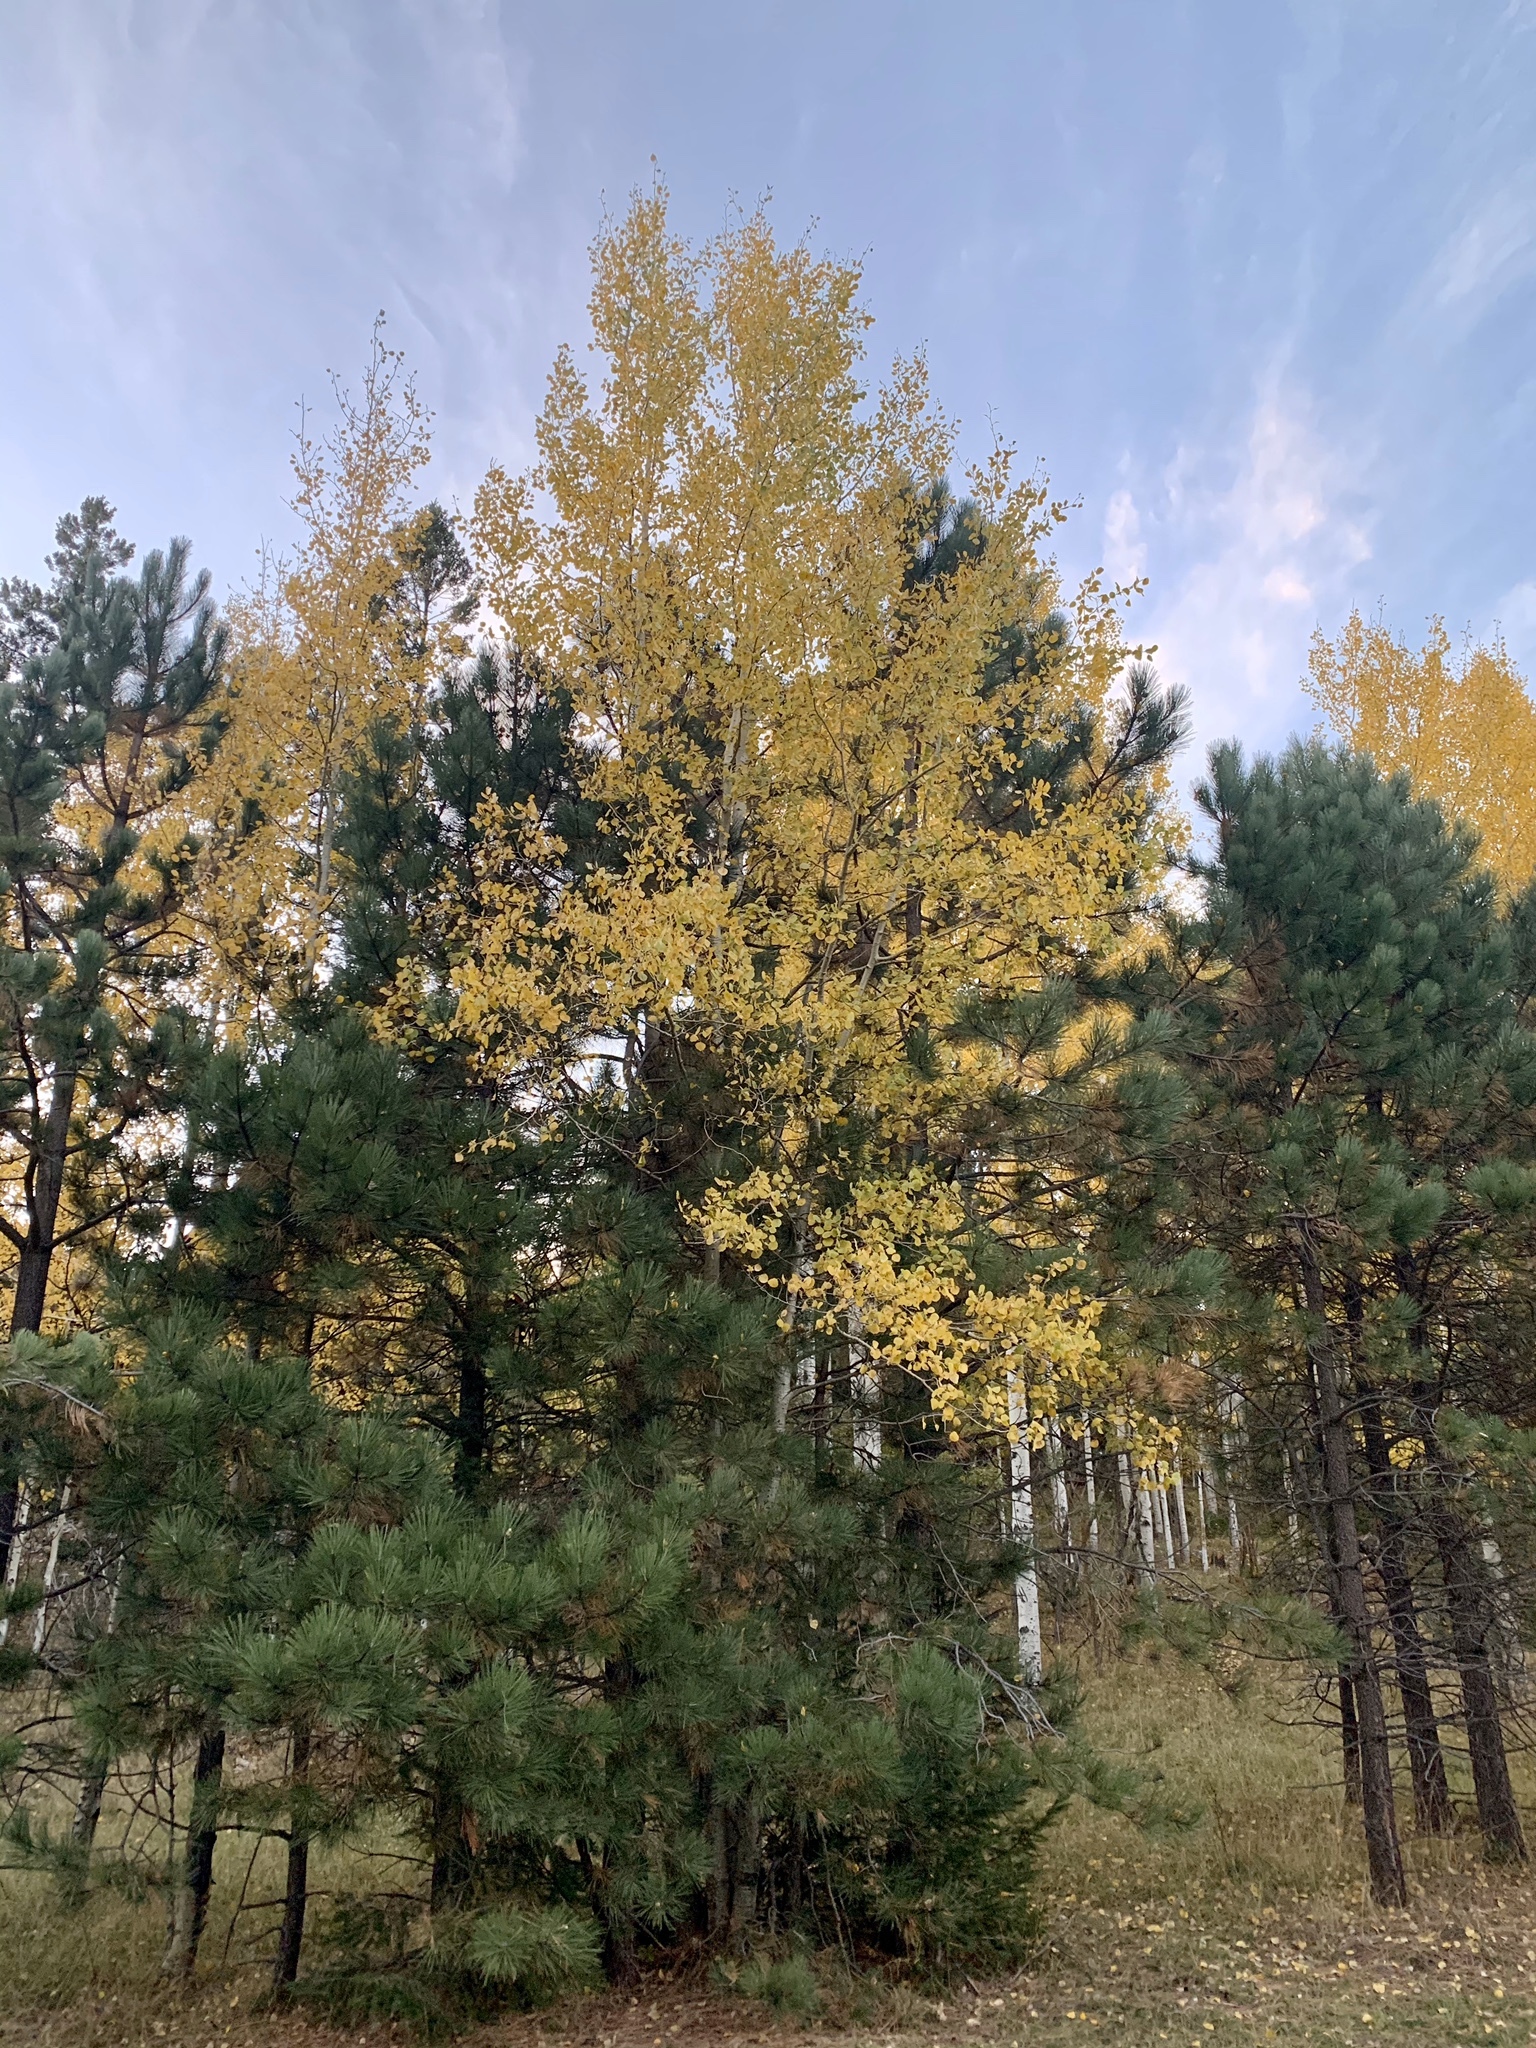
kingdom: Plantae
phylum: Tracheophyta
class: Magnoliopsida
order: Malpighiales
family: Salicaceae
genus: Populus
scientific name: Populus tremuloides
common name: Quaking aspen
